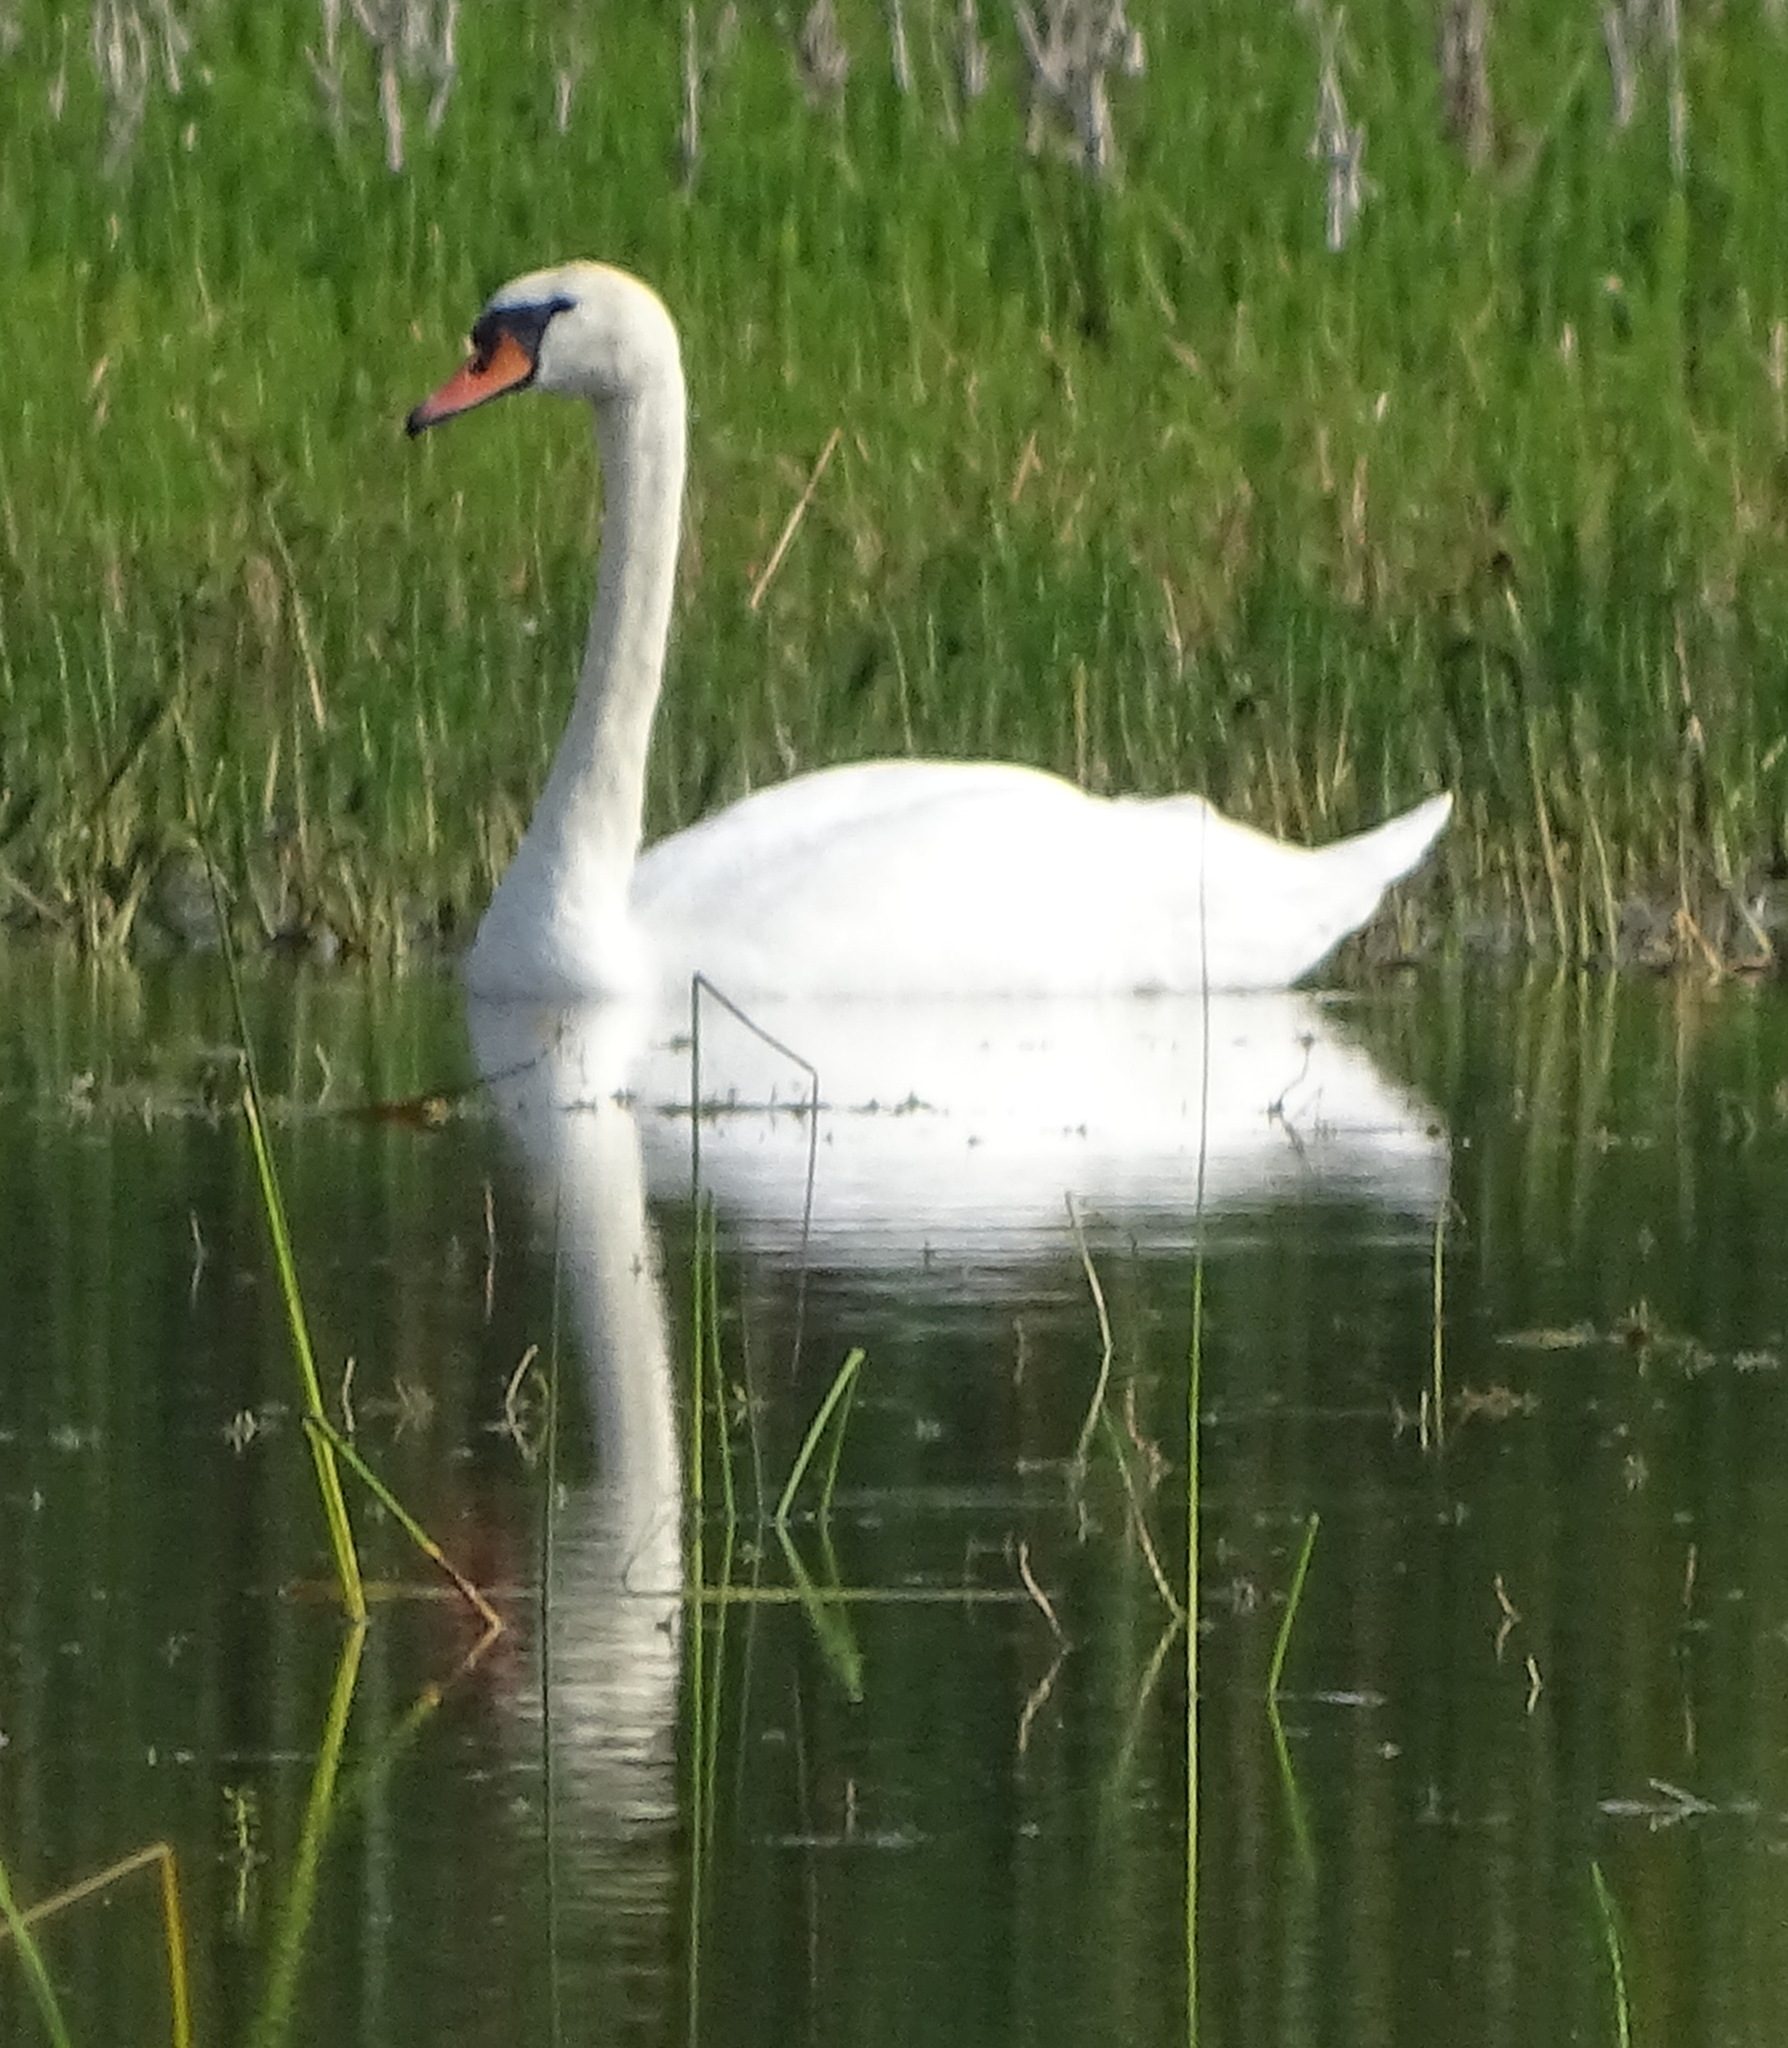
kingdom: Animalia
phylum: Chordata
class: Aves
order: Anseriformes
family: Anatidae
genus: Cygnus
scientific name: Cygnus olor
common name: Mute swan
